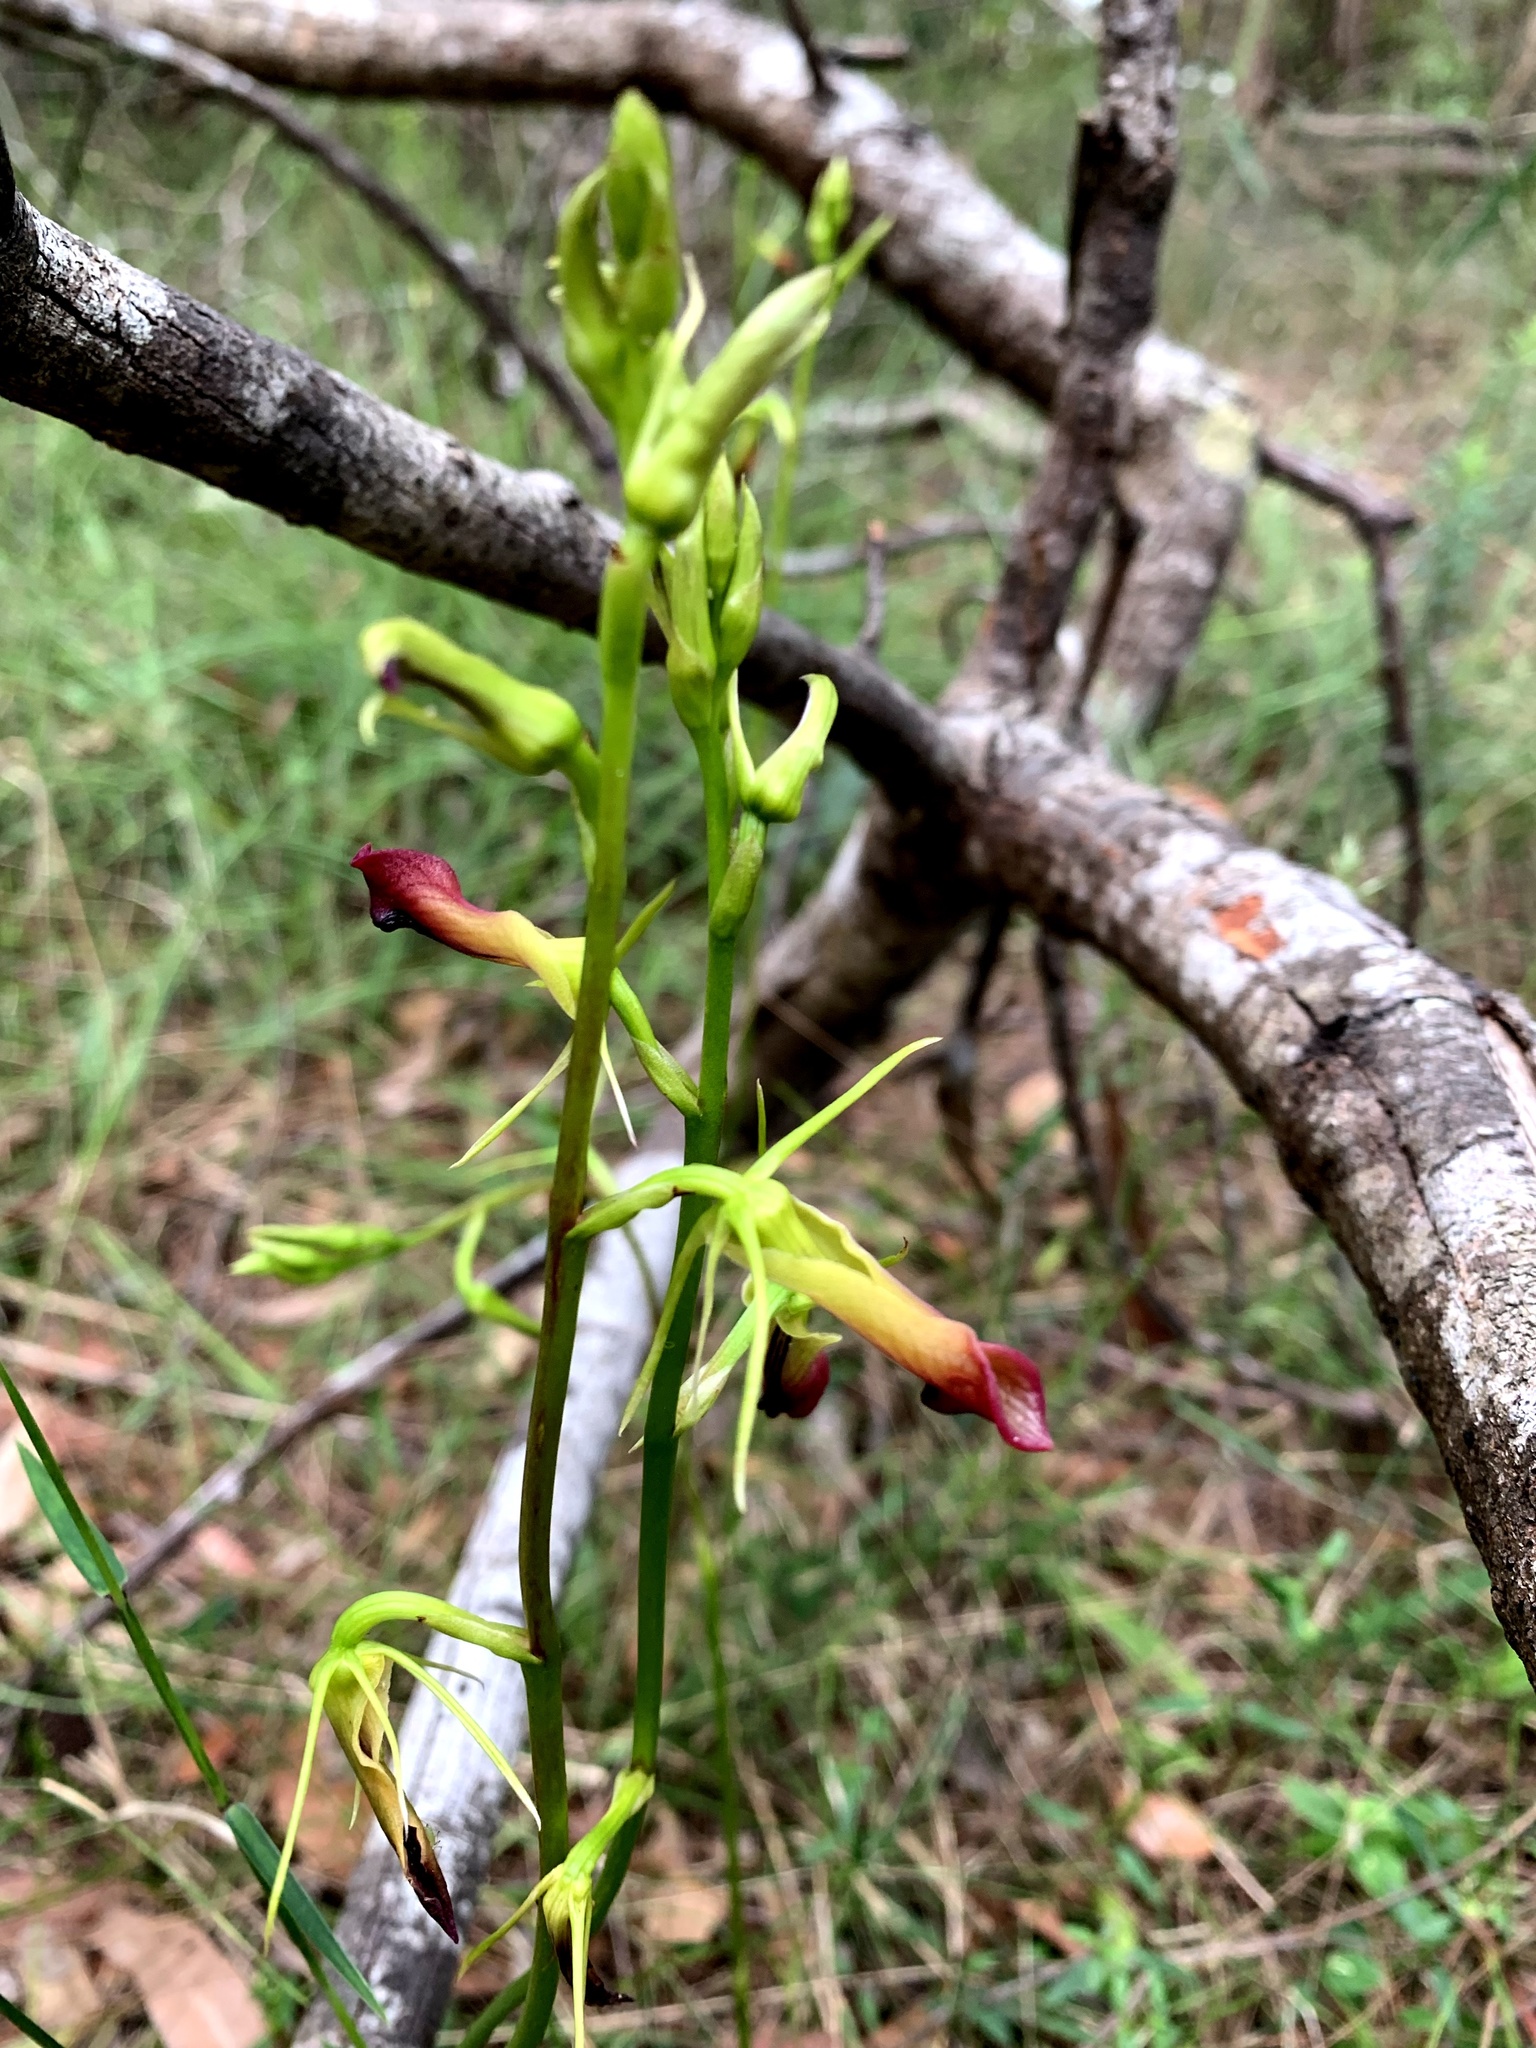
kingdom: Plantae
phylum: Tracheophyta
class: Liliopsida
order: Asparagales
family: Orchidaceae
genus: Cryptostylis
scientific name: Cryptostylis subulata
